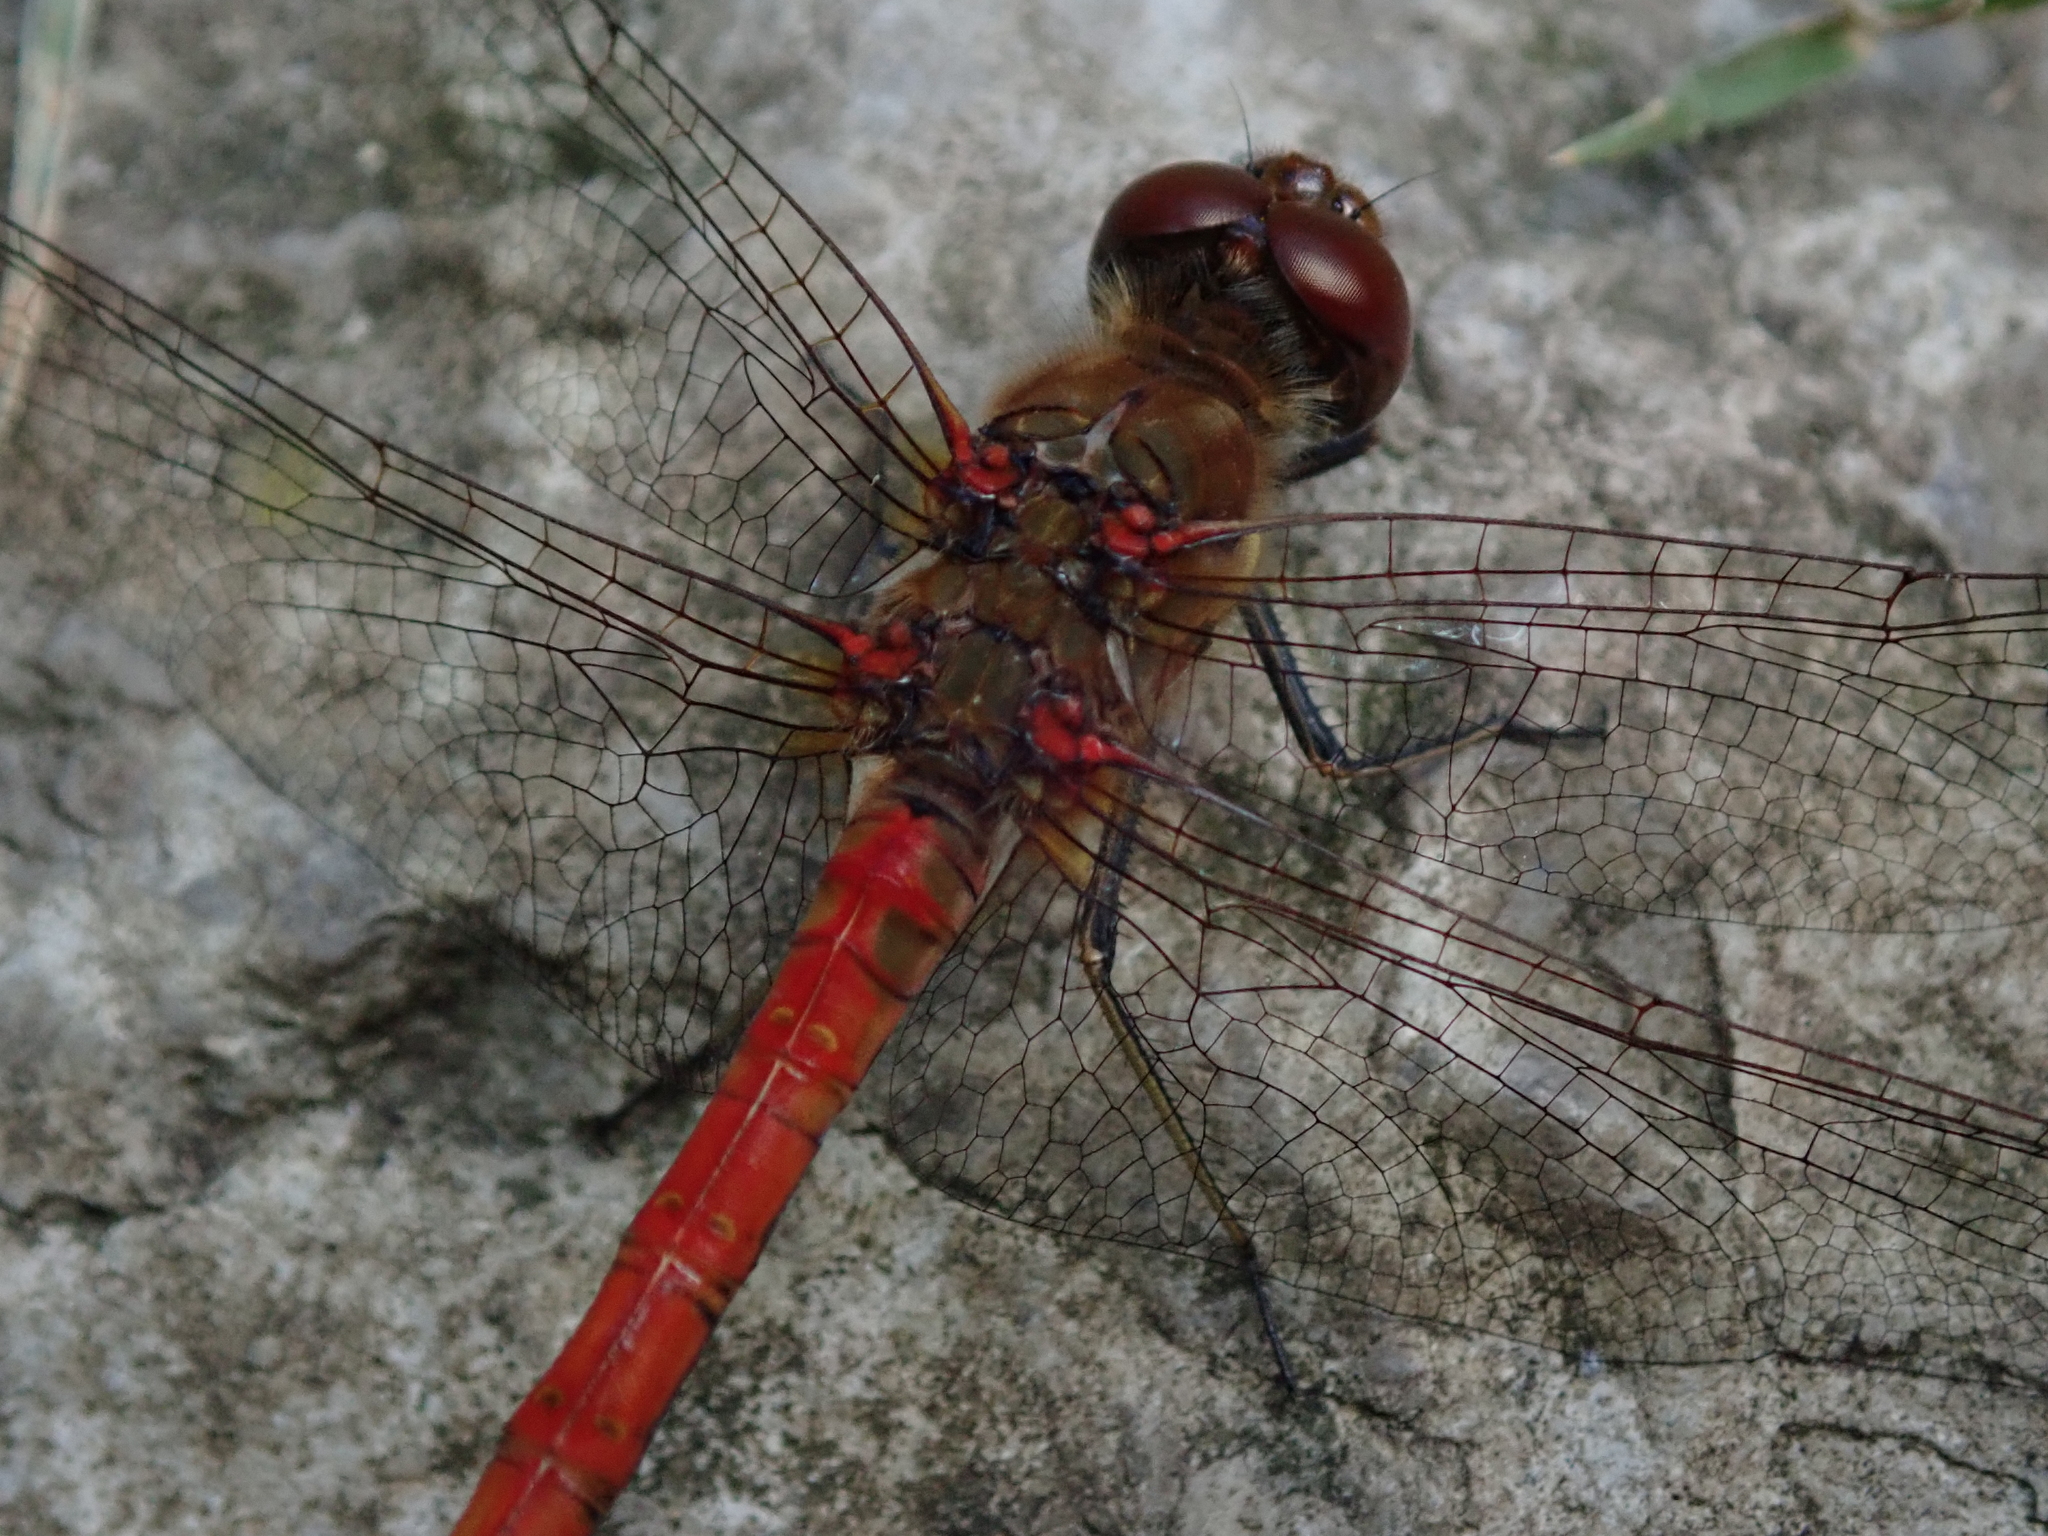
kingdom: Animalia
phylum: Arthropoda
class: Insecta
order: Odonata
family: Libellulidae
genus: Sympetrum
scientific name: Sympetrum striolatum
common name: Common darter
